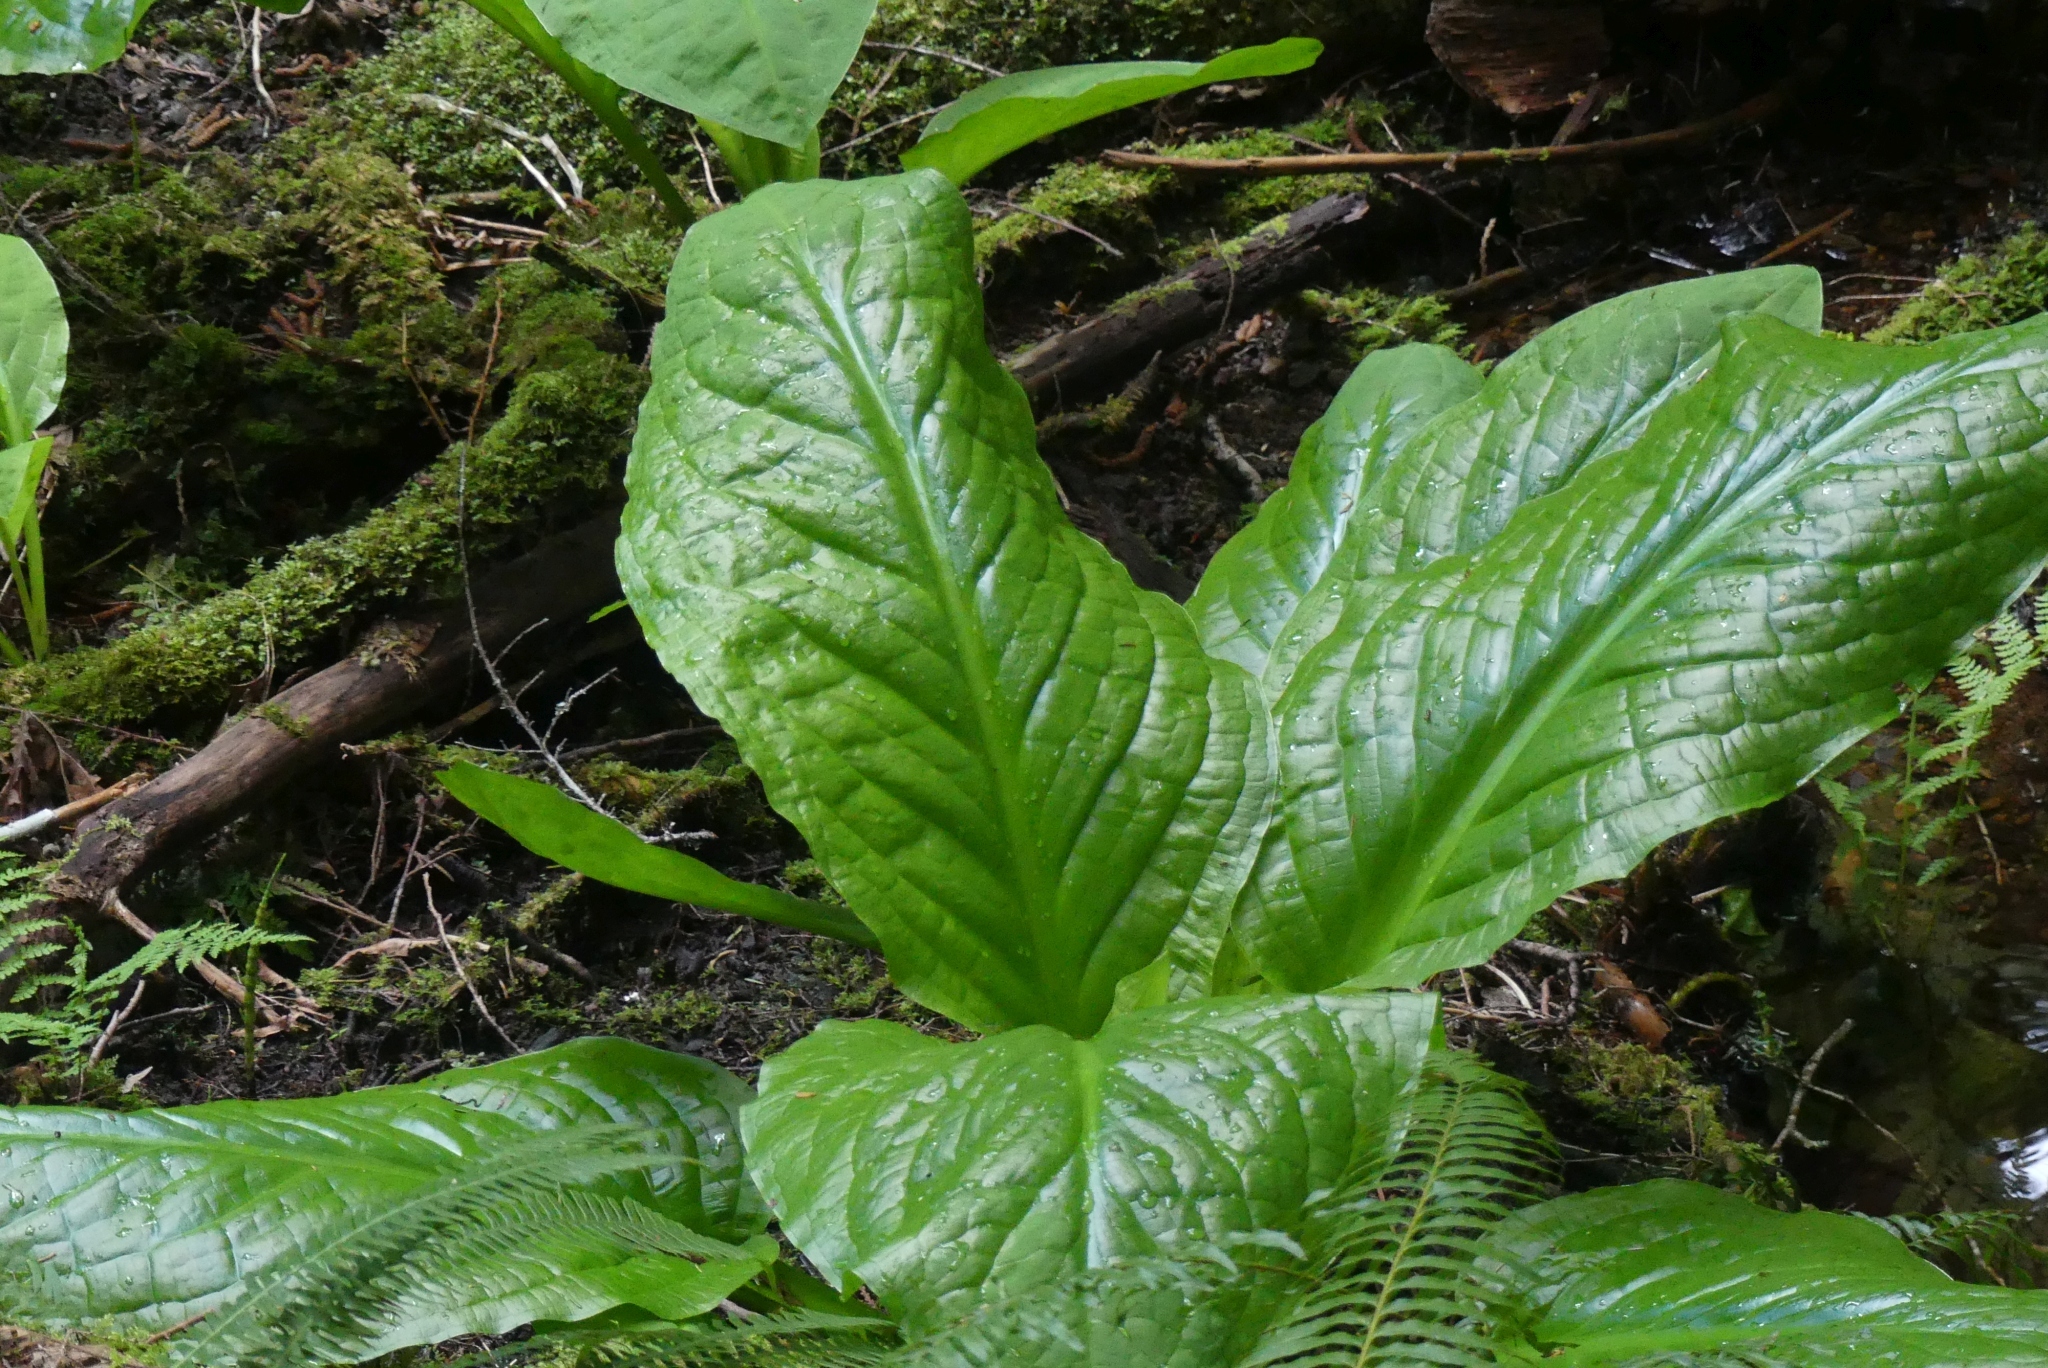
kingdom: Plantae
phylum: Tracheophyta
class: Liliopsida
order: Alismatales
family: Araceae
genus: Lysichiton
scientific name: Lysichiton americanus
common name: American skunk cabbage
